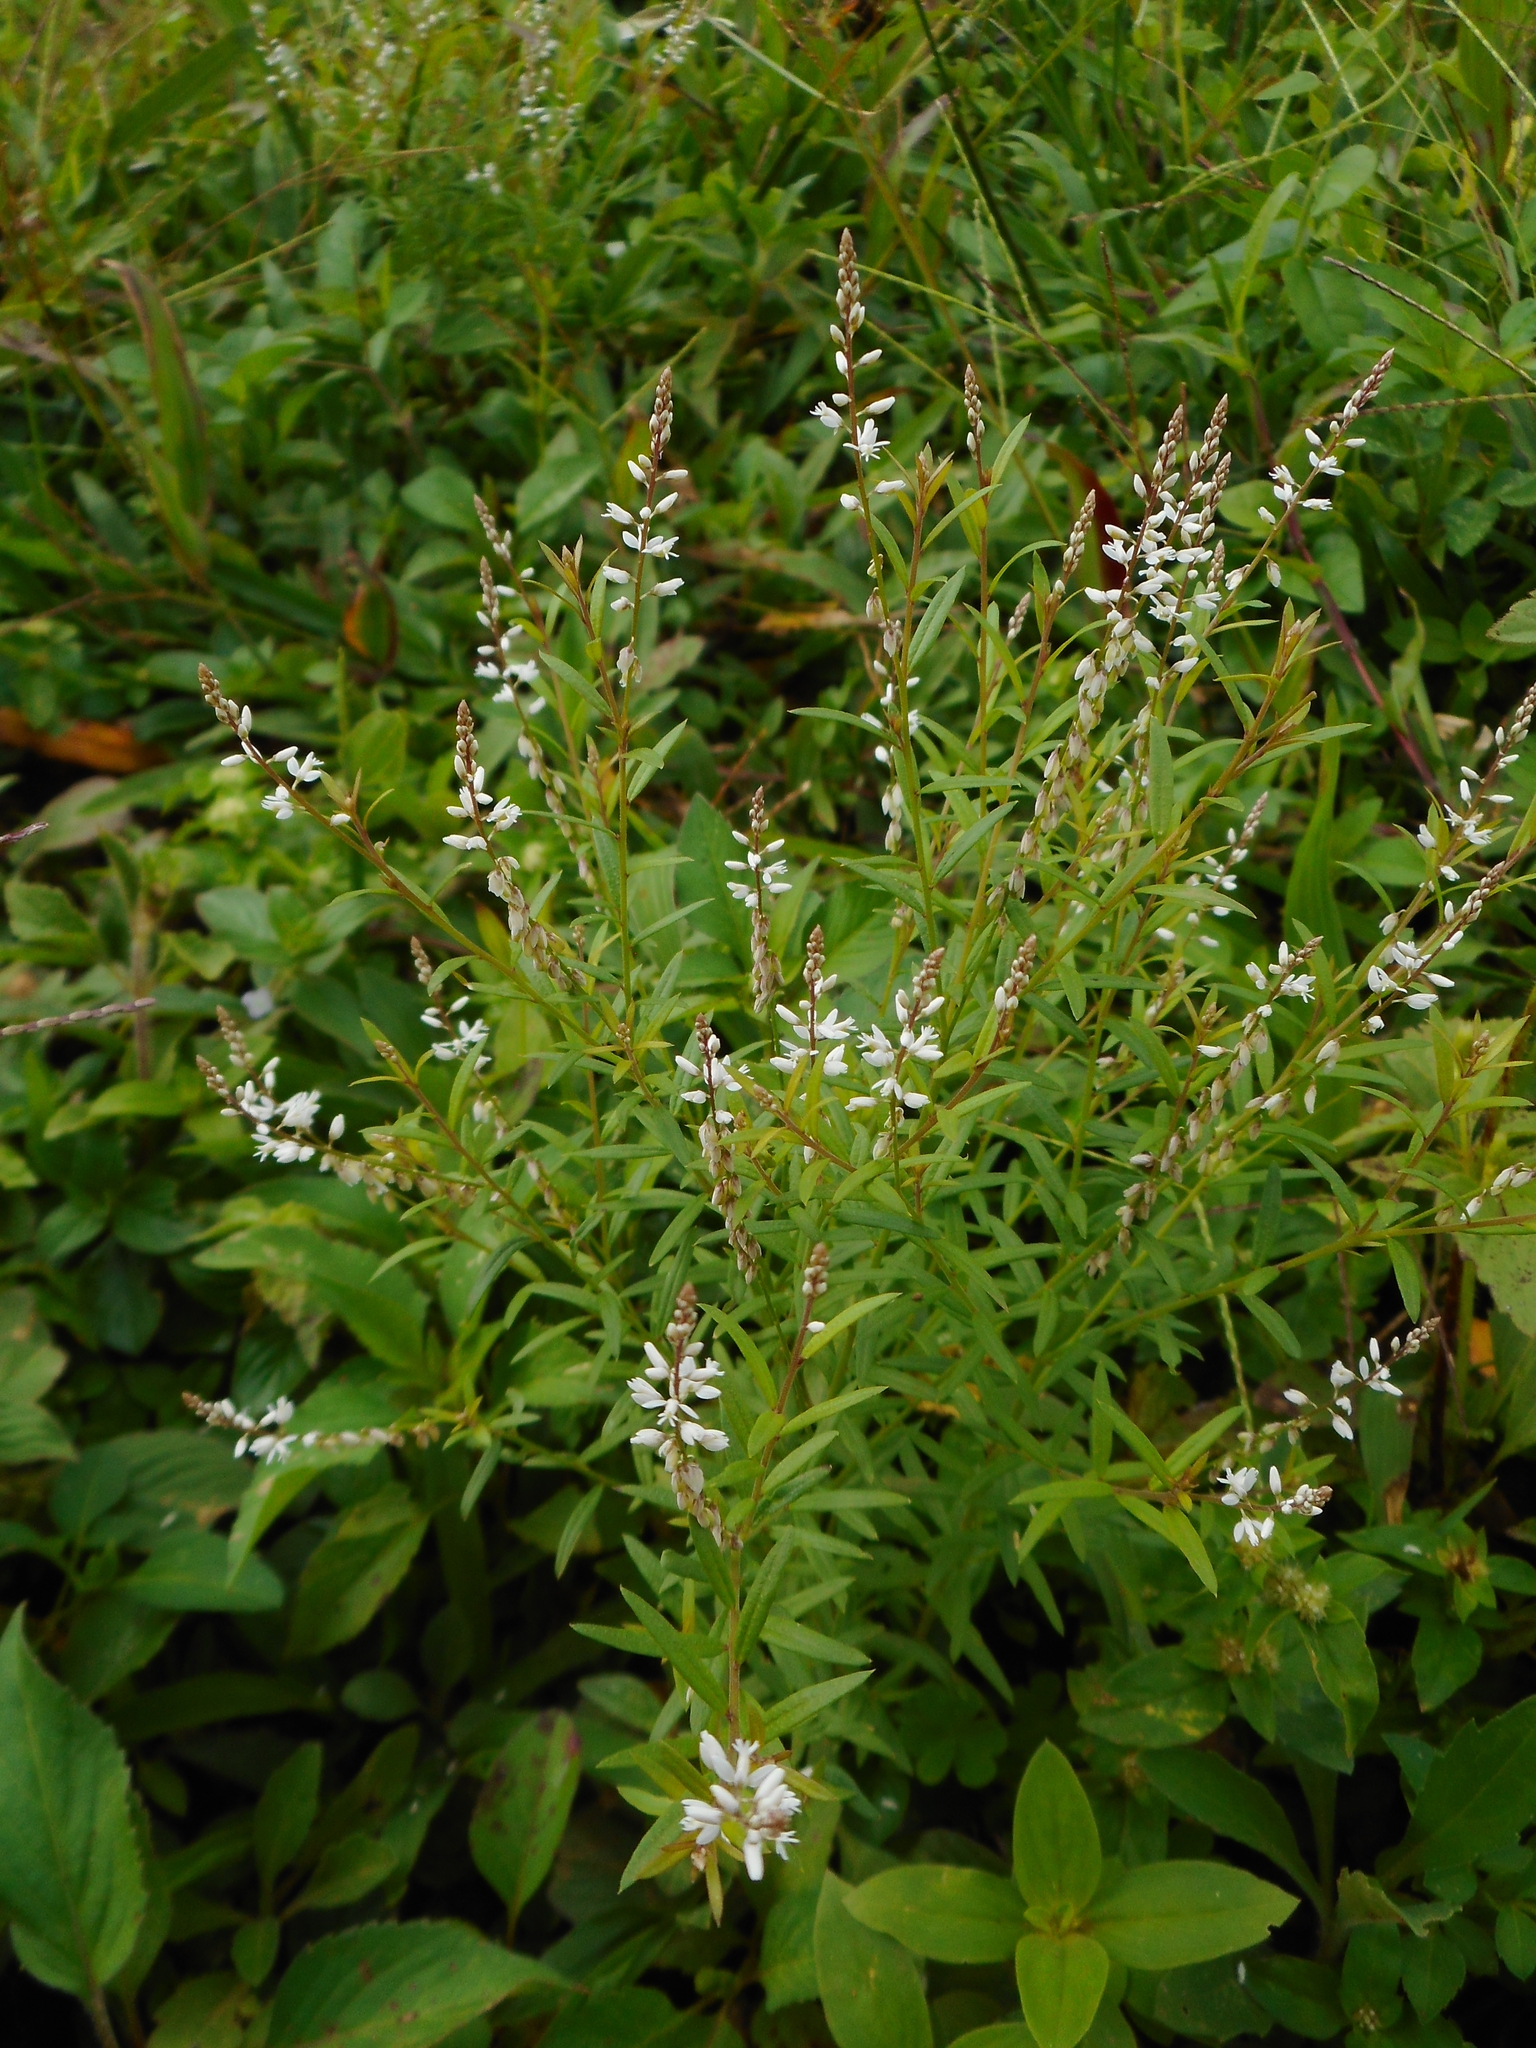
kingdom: Plantae
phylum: Tracheophyta
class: Magnoliopsida
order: Fabales
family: Polygalaceae
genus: Polygala
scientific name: Polygala paniculata
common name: Orosne
